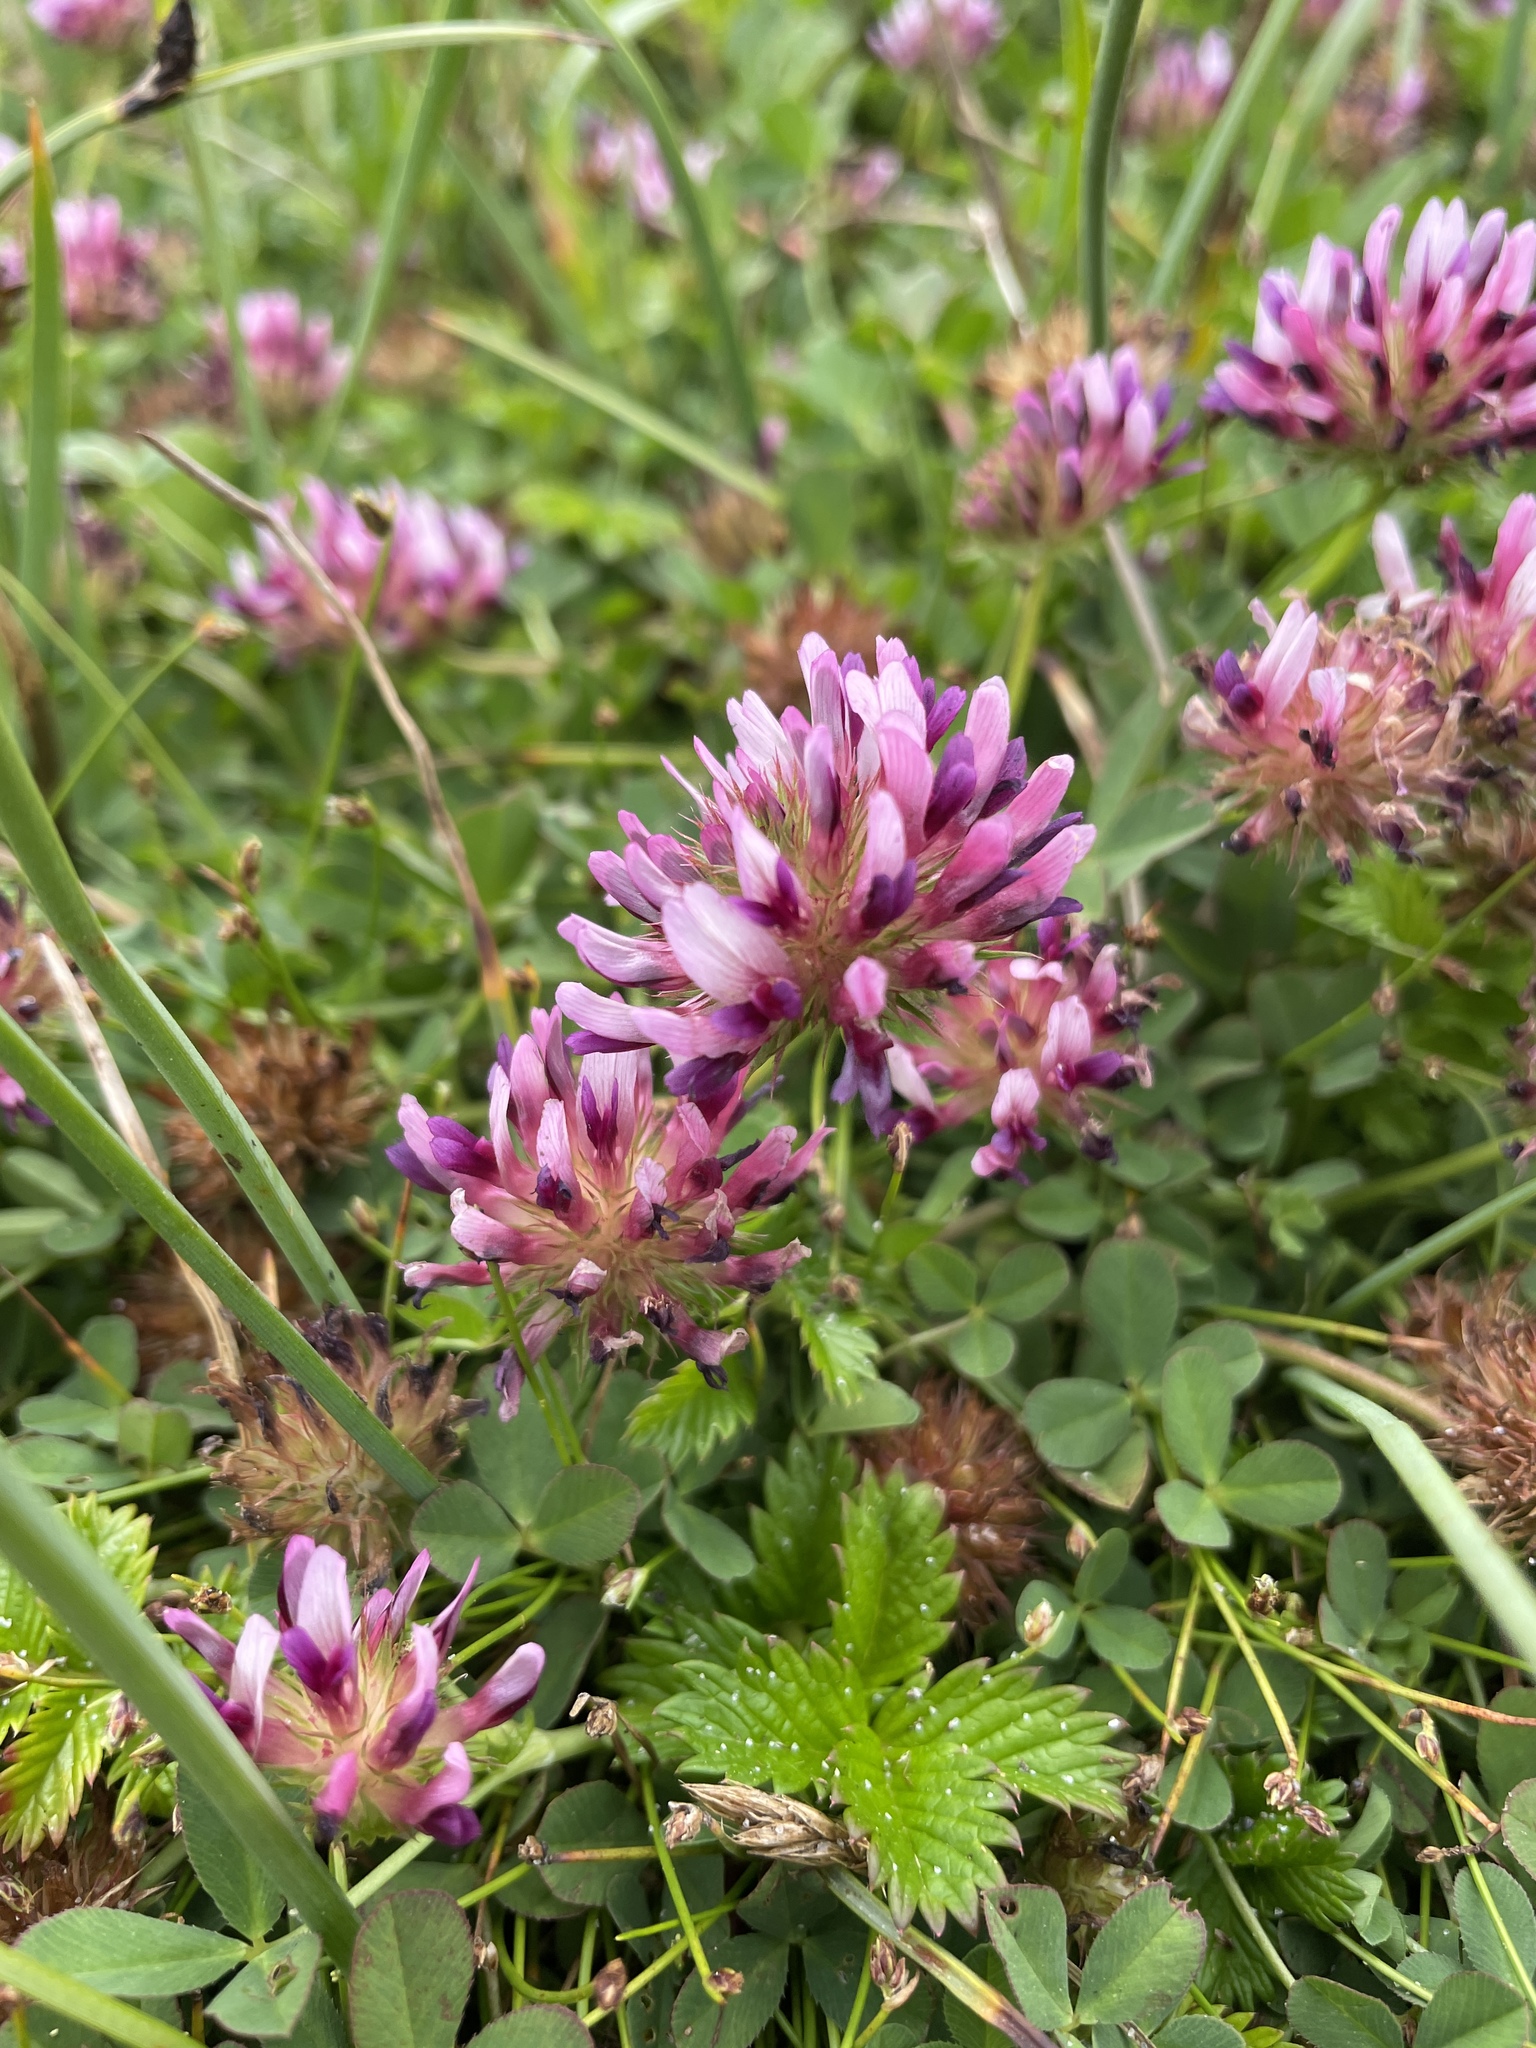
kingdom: Plantae
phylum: Tracheophyta
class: Magnoliopsida
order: Fabales
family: Fabaceae
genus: Trifolium
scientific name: Trifolium wormskioldii
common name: Springbank clover
